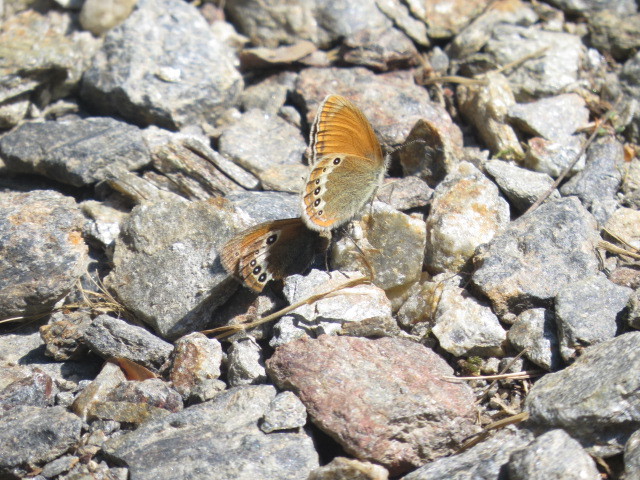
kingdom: Animalia
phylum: Arthropoda
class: Insecta
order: Lepidoptera
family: Nymphalidae
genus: Coenonympha
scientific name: Coenonympha
